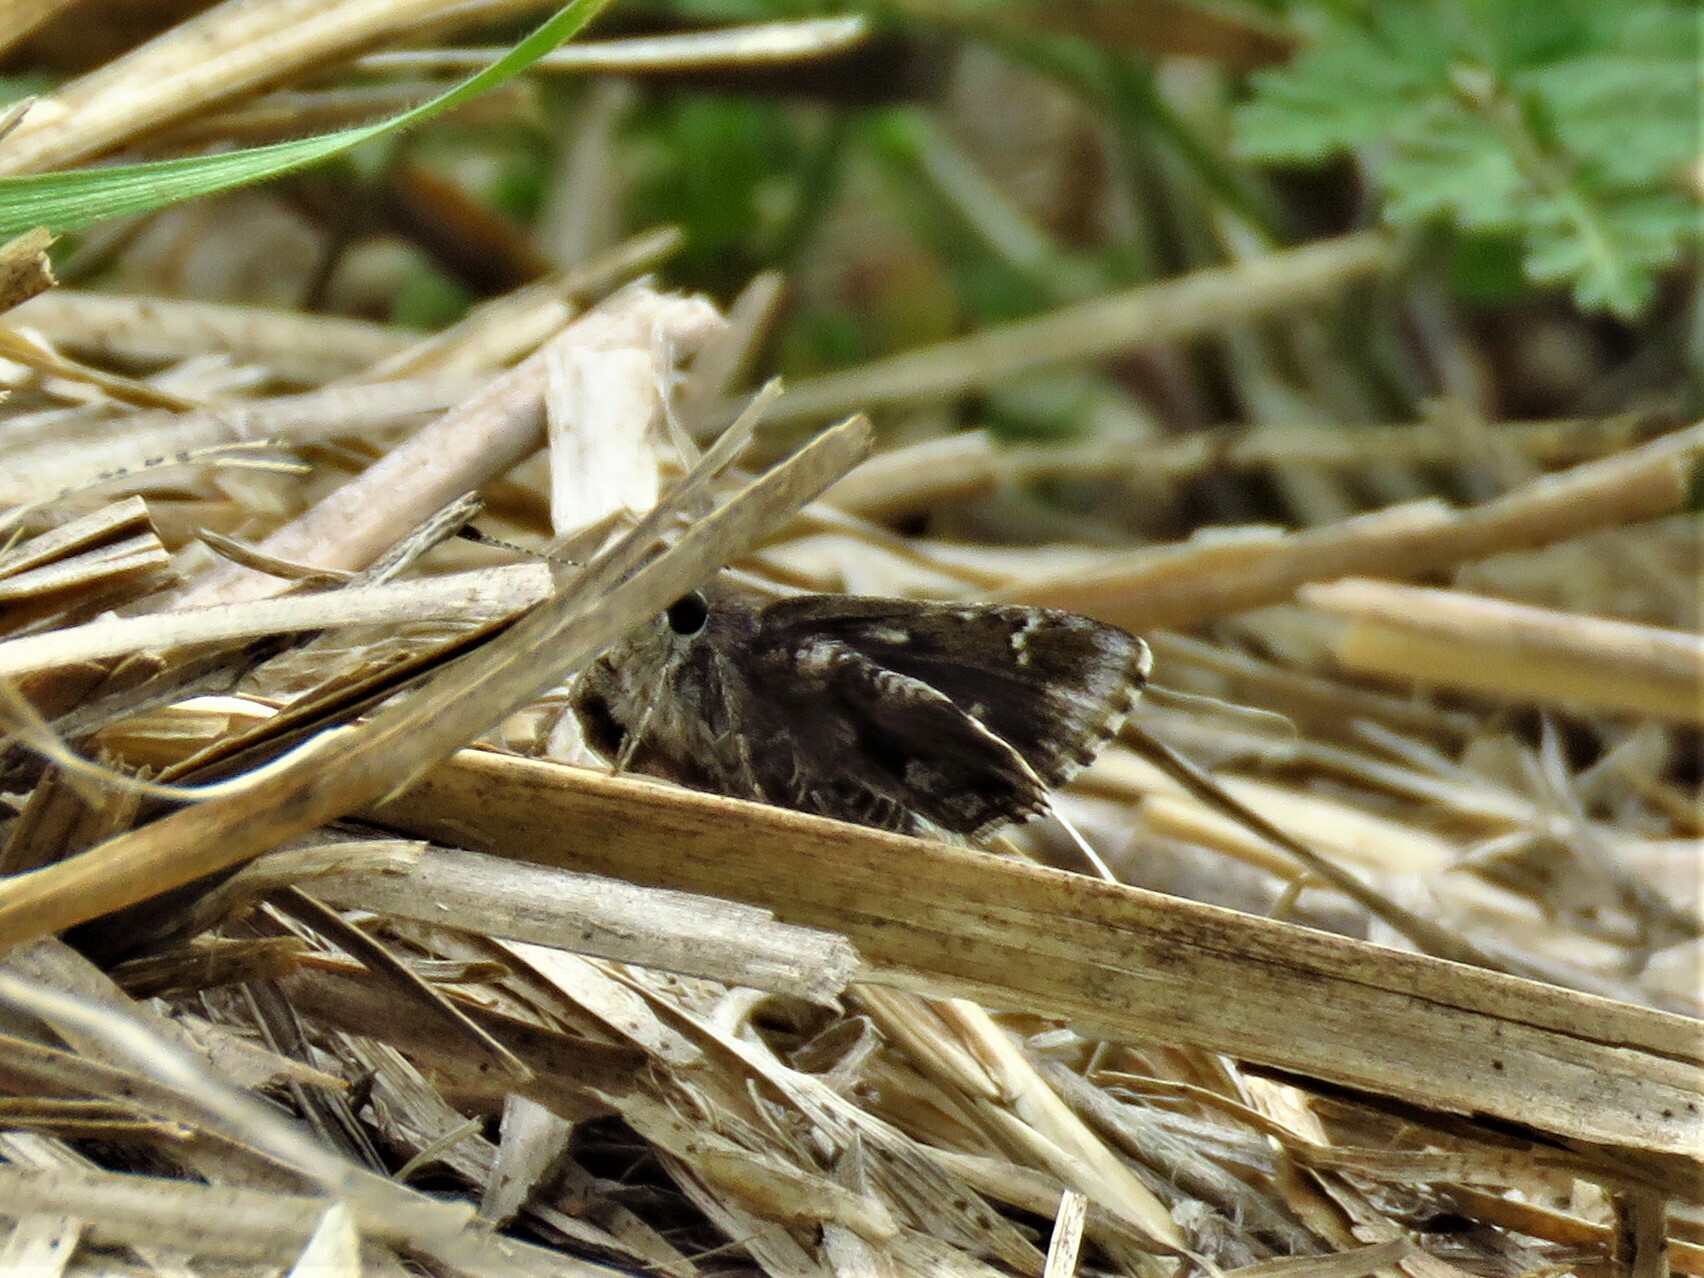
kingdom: Animalia
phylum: Arthropoda
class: Insecta
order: Lepidoptera
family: Hesperiidae
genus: Mastor
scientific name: Mastor nysa
